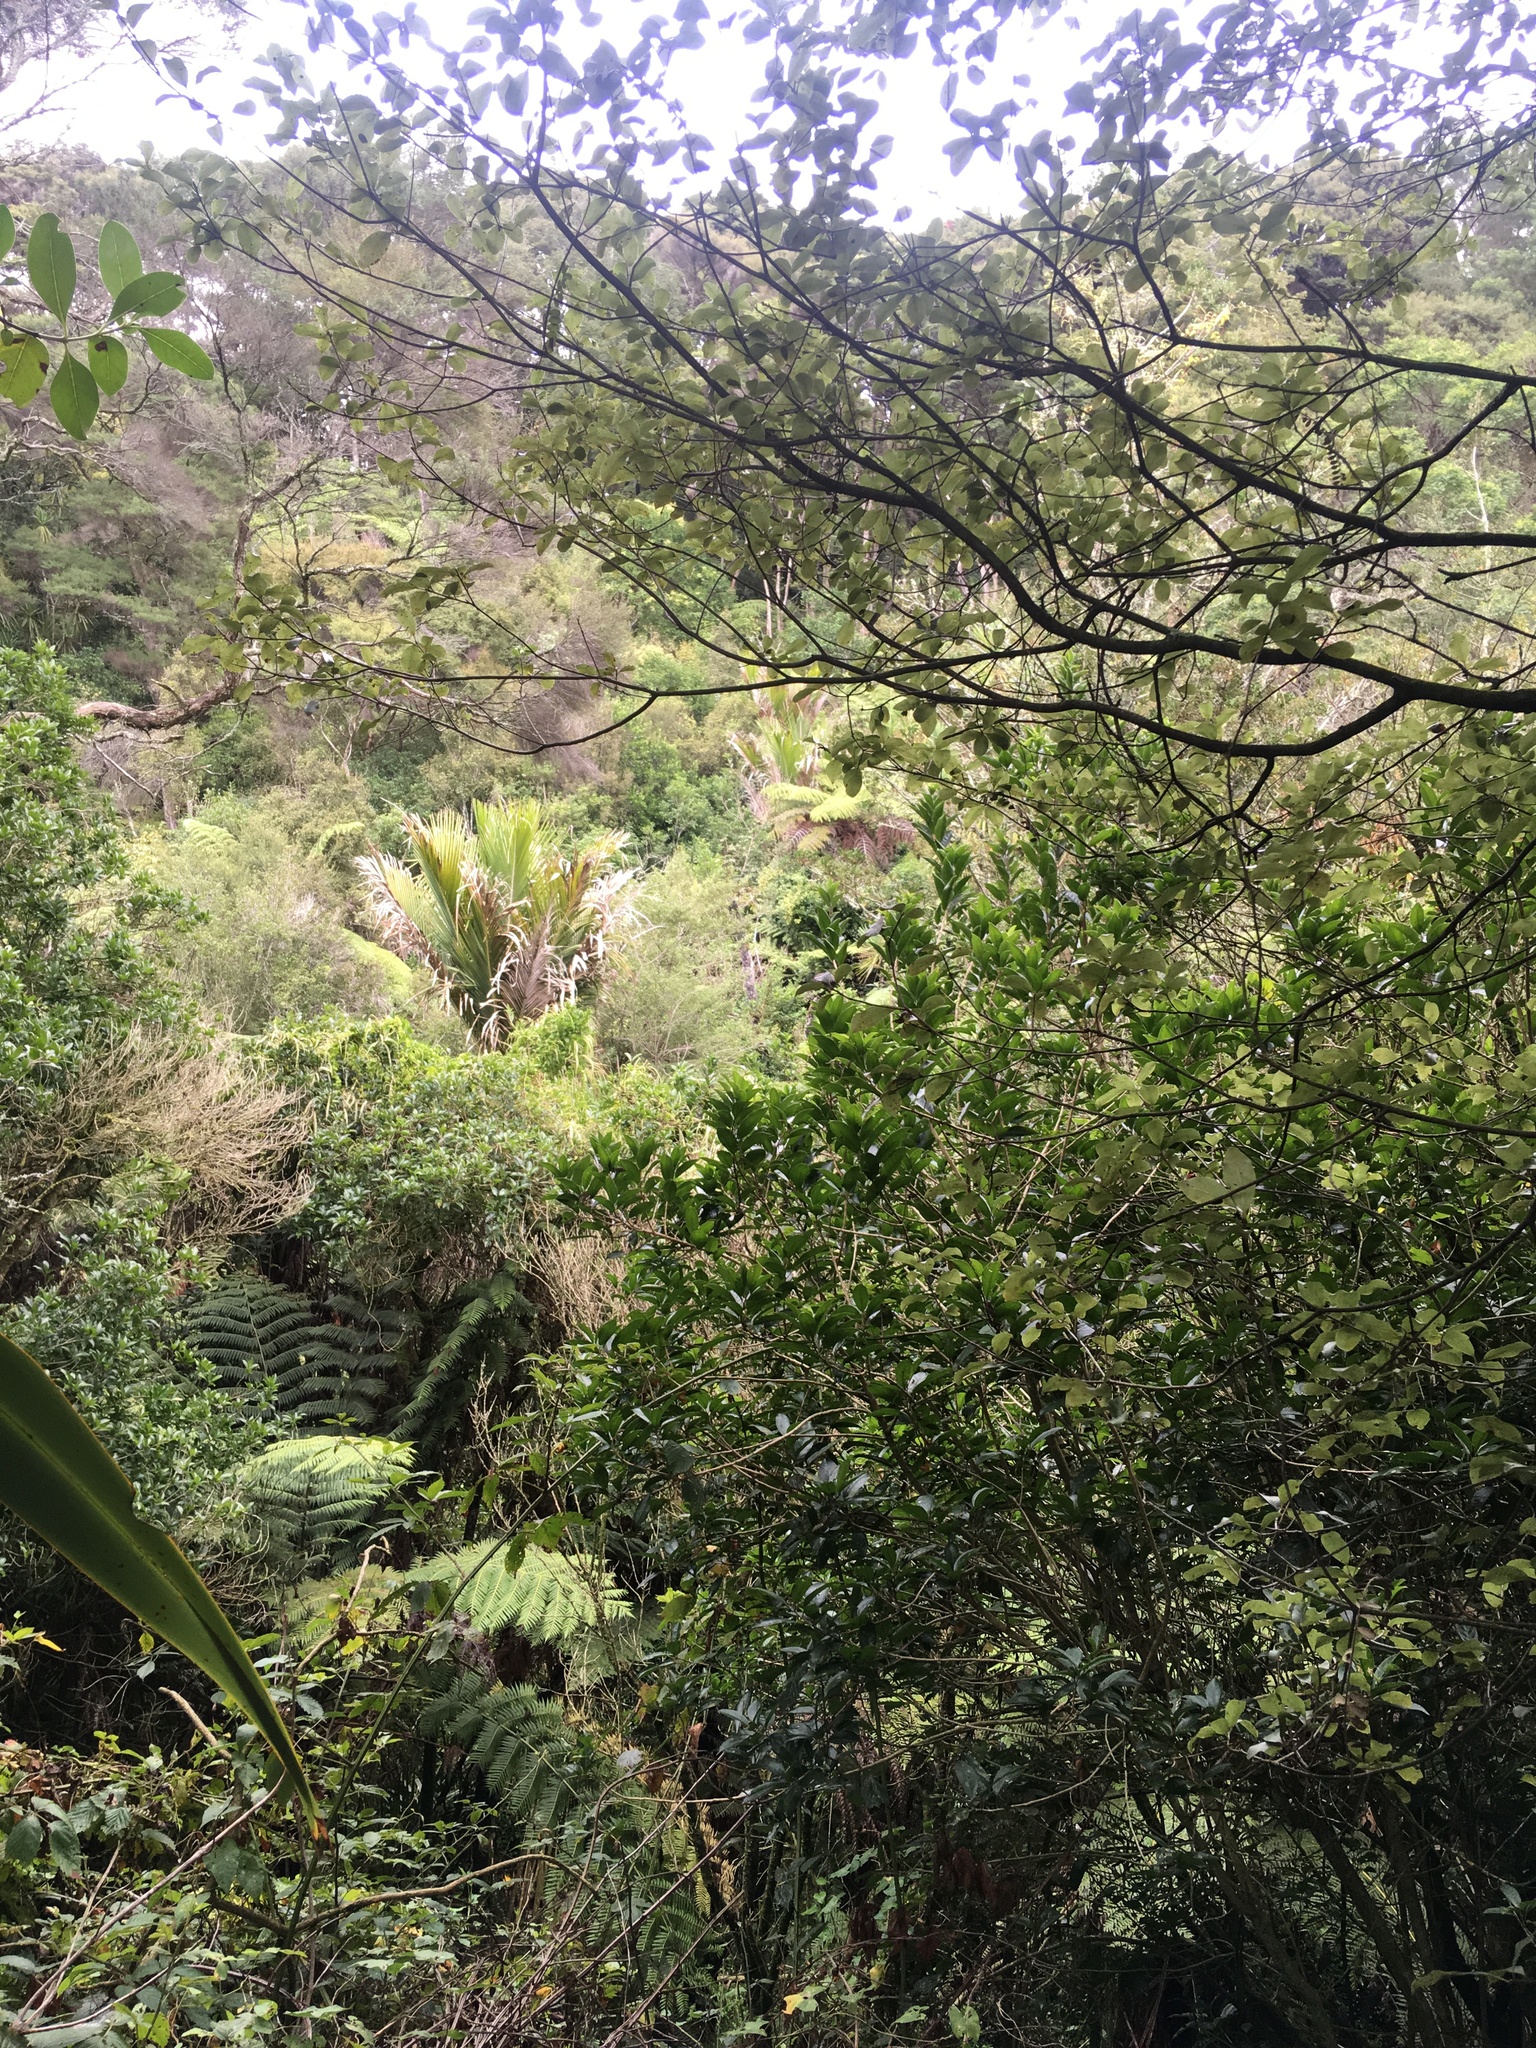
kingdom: Plantae
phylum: Tracheophyta
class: Polypodiopsida
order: Cyatheales
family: Cyatheaceae
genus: Alsophila
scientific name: Alsophila dealbata
